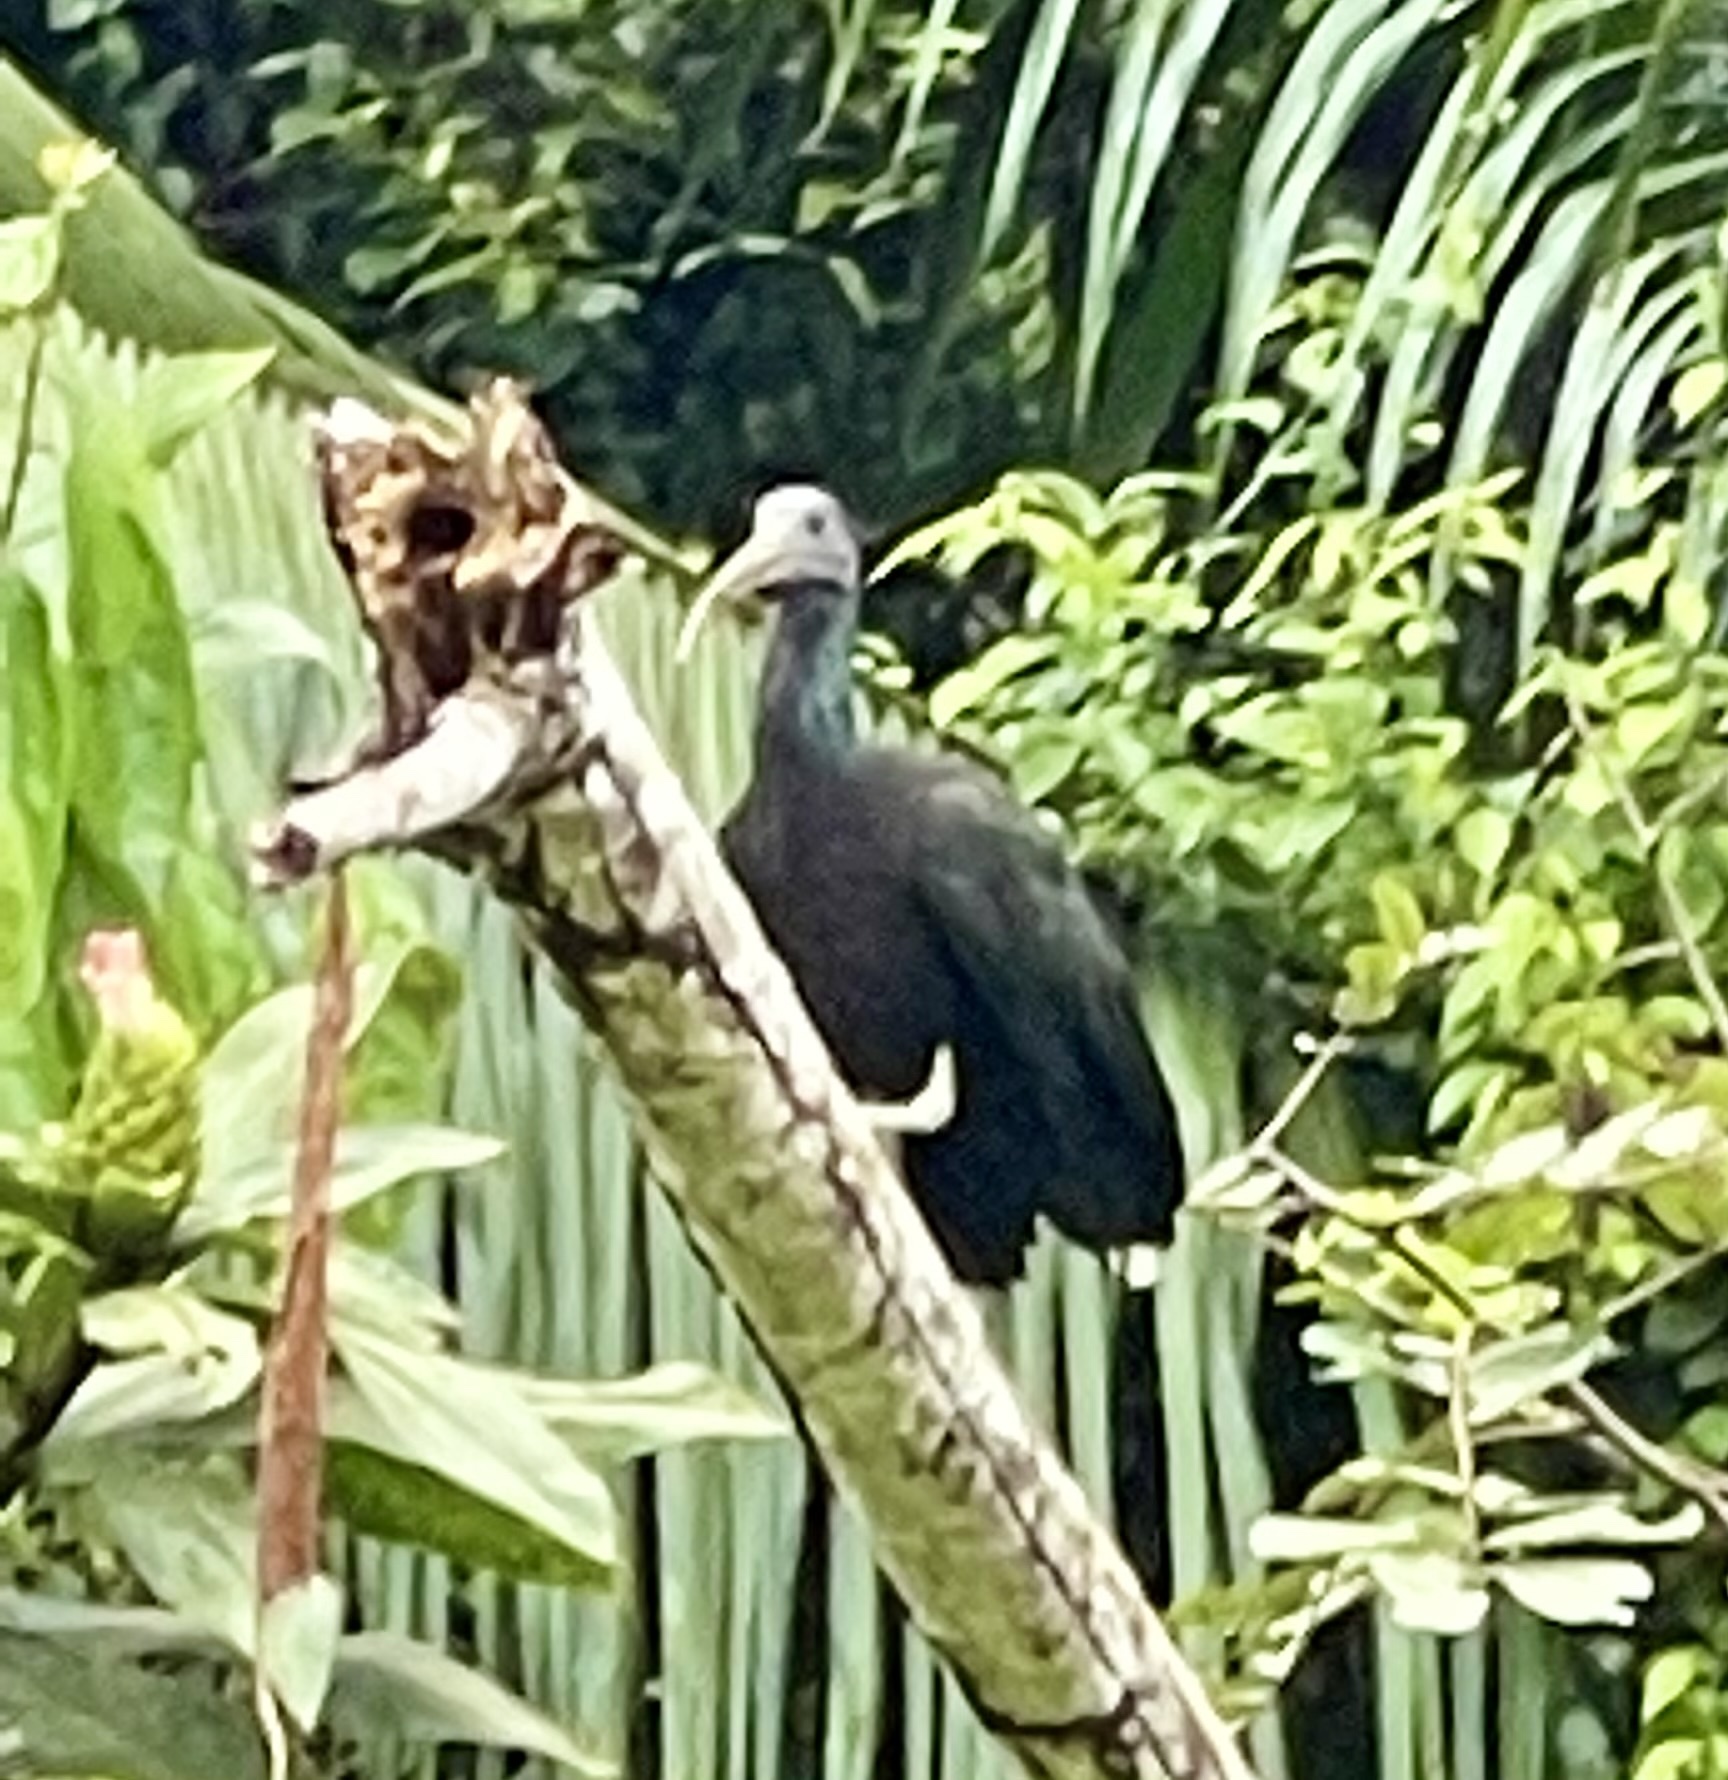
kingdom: Animalia
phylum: Chordata
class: Aves
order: Pelecaniformes
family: Threskiornithidae
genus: Mesembrinibis
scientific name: Mesembrinibis cayennensis
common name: Green ibis
